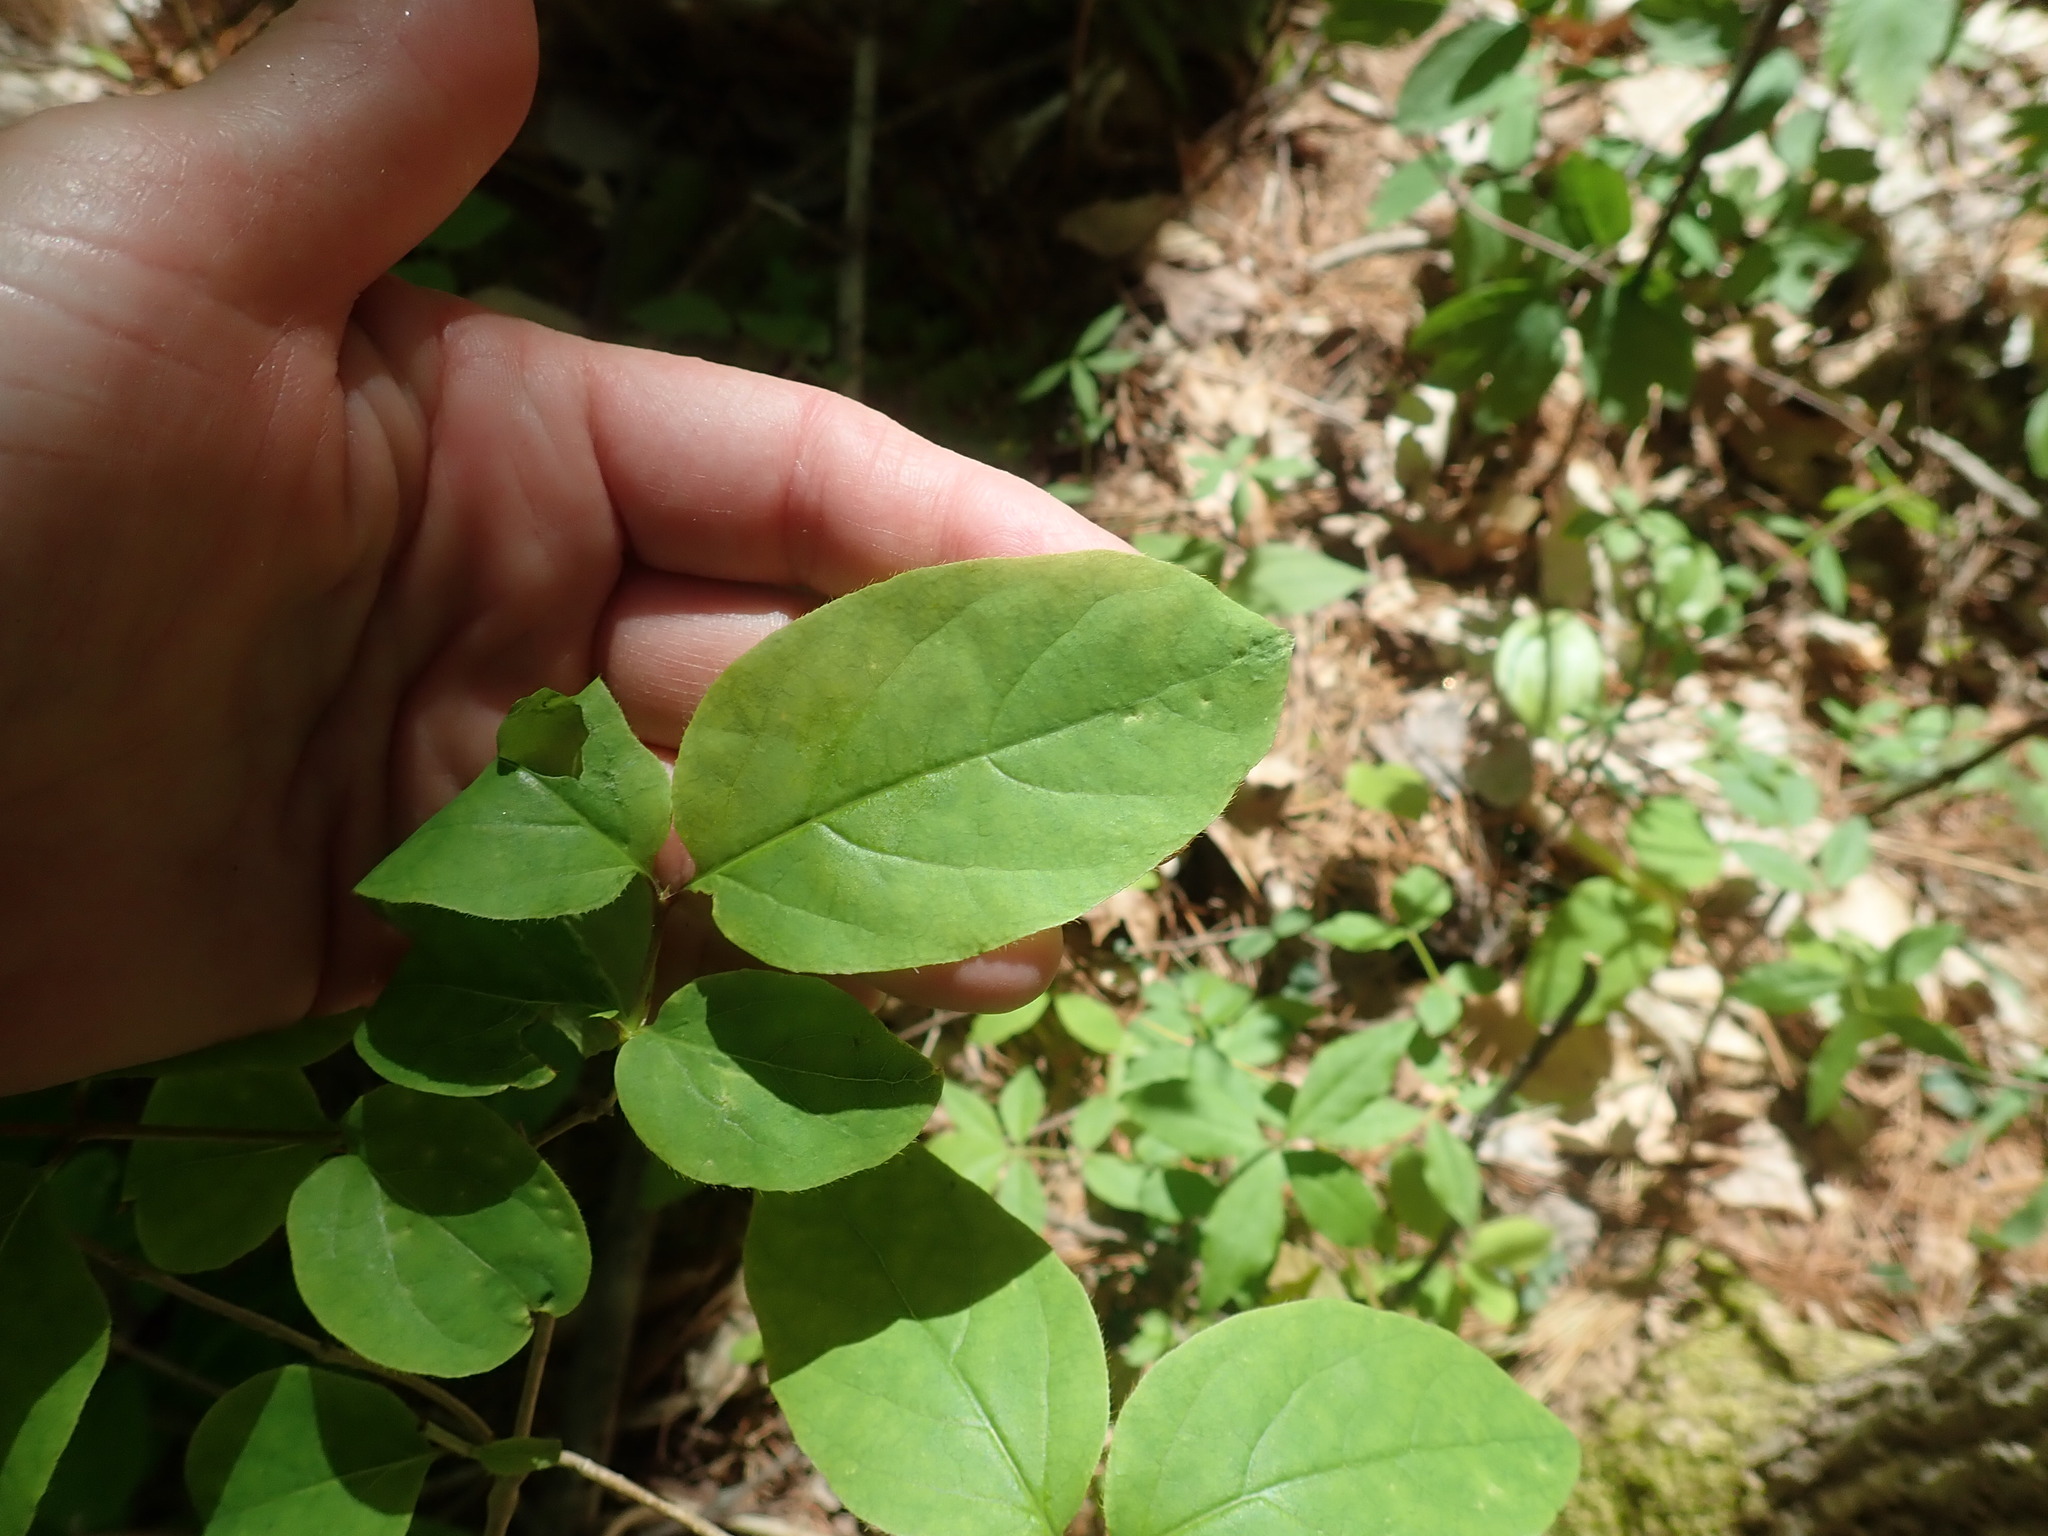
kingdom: Plantae
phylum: Tracheophyta
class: Magnoliopsida
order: Dipsacales
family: Caprifoliaceae
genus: Lonicera
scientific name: Lonicera canadensis
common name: American fly-honeysuckle
